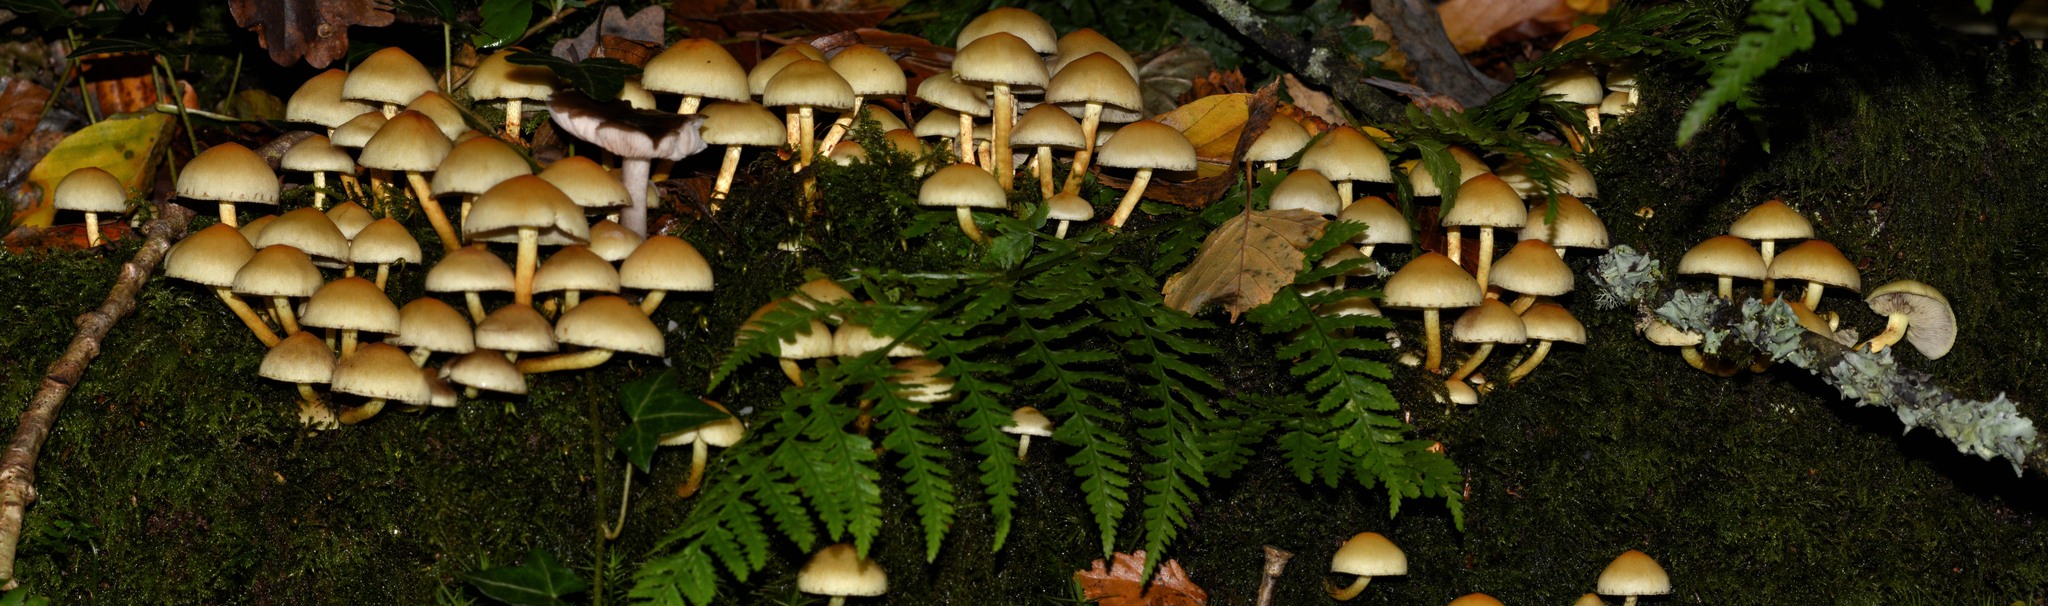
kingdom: Fungi
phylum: Basidiomycota
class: Agaricomycetes
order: Agaricales
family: Strophariaceae
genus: Hypholoma
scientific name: Hypholoma fasciculare
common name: Sulphur tuft
